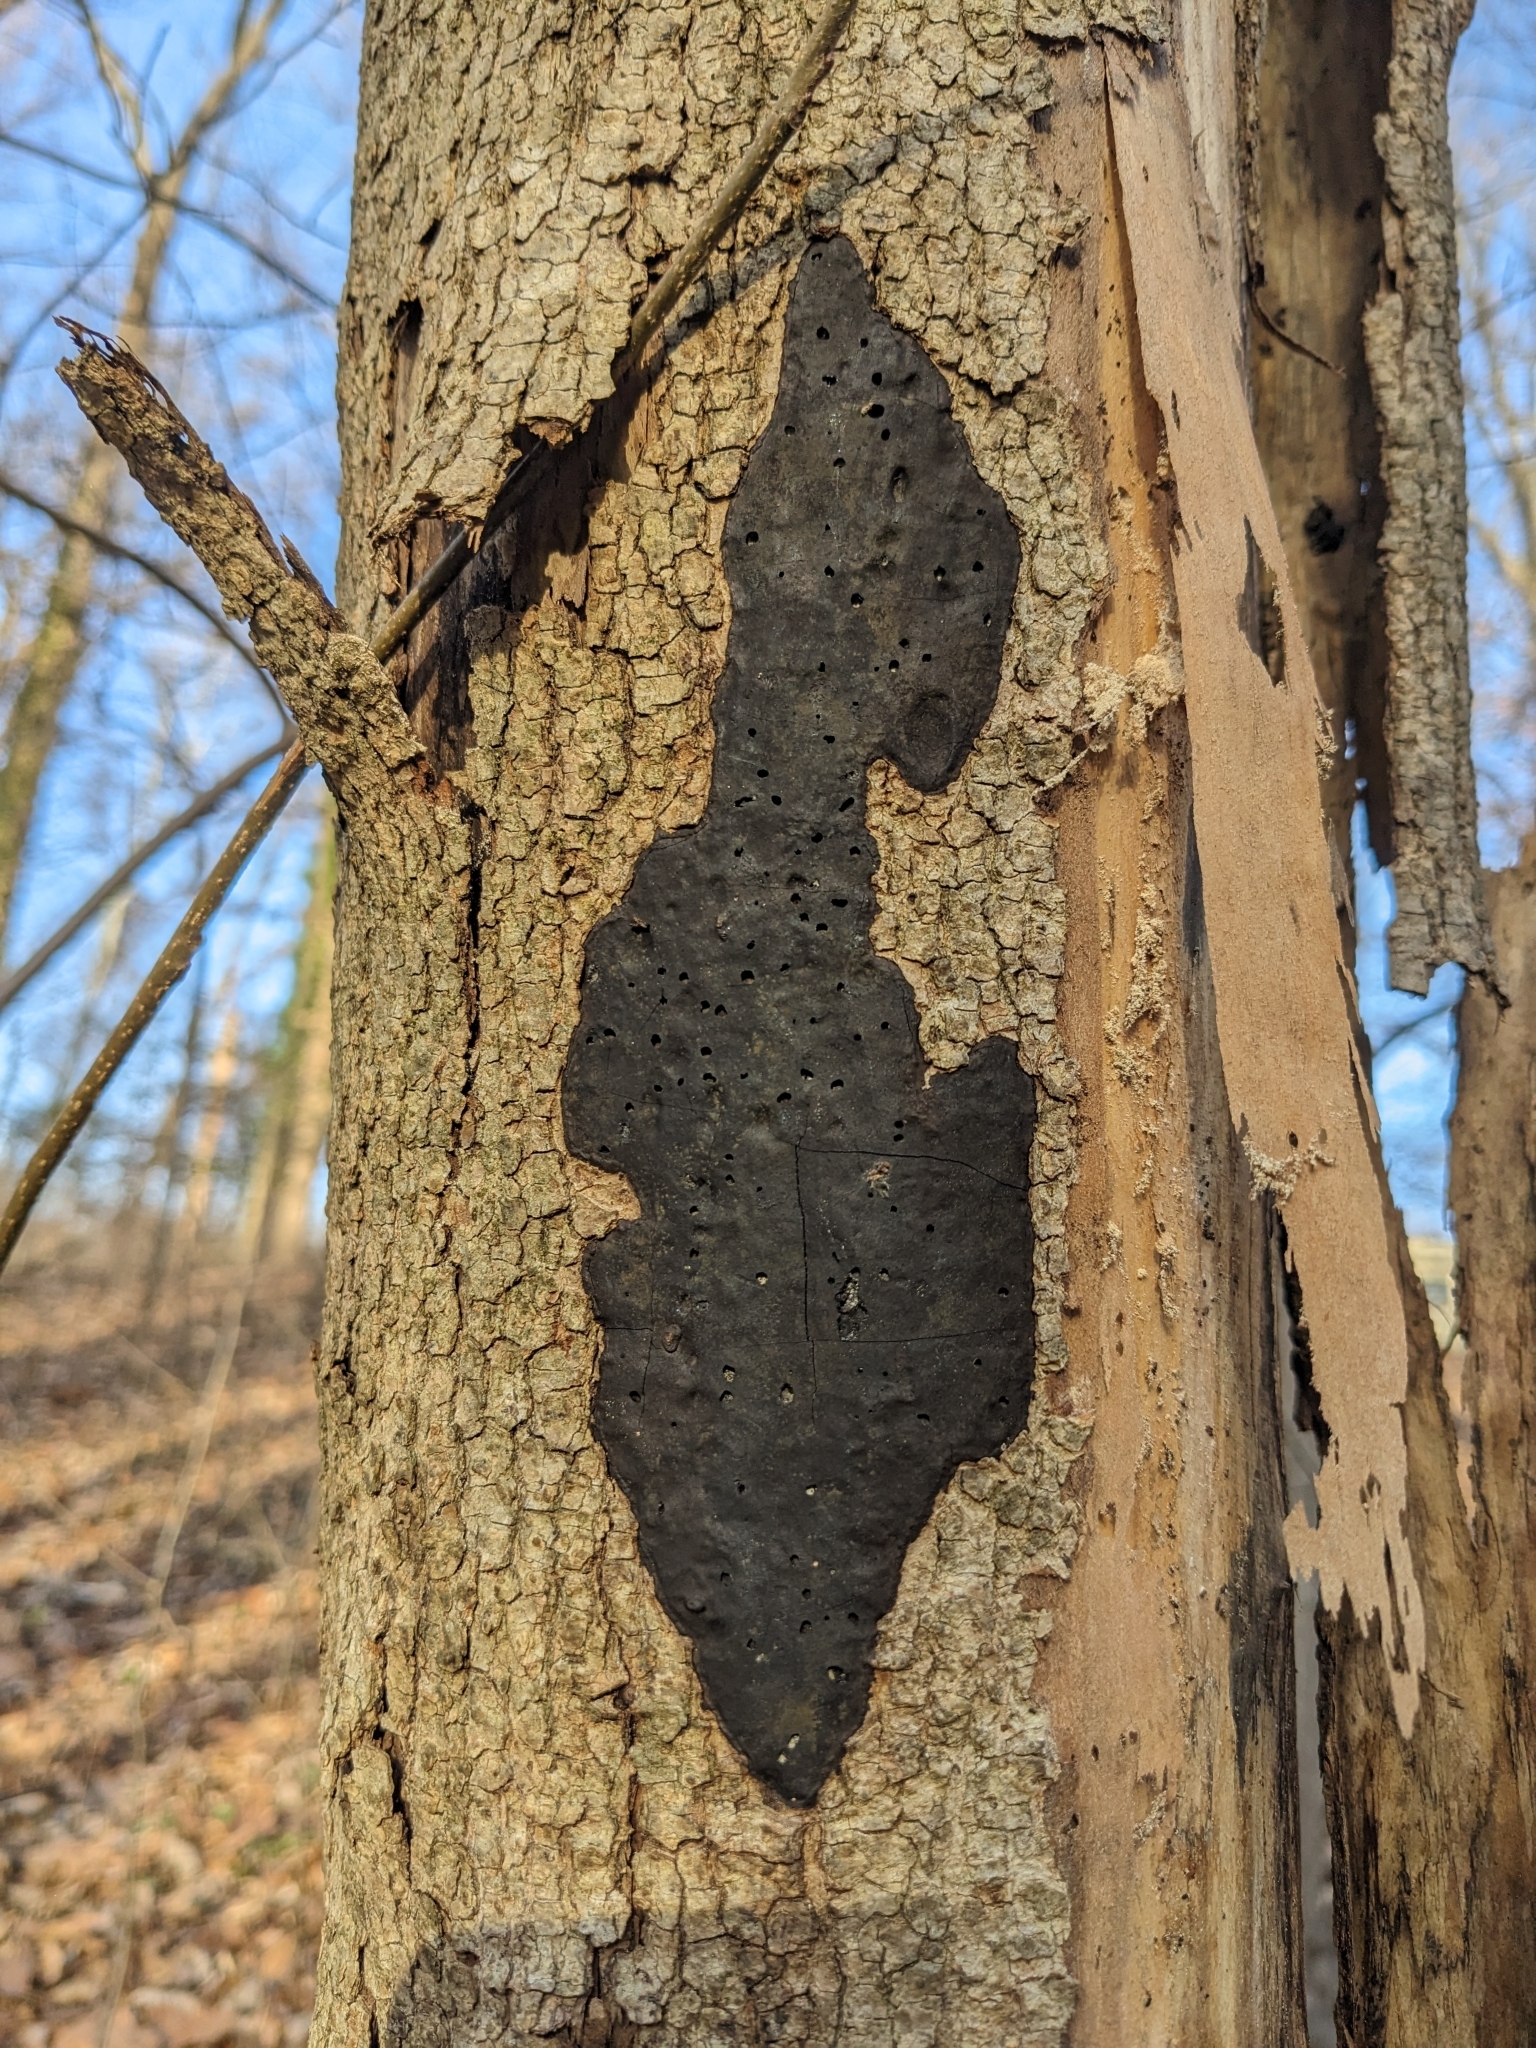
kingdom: Fungi
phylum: Ascomycota
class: Sordariomycetes
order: Xylariales
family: Diatrypaceae
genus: Diatrype
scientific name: Diatrype stigma
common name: Common tarcrust
